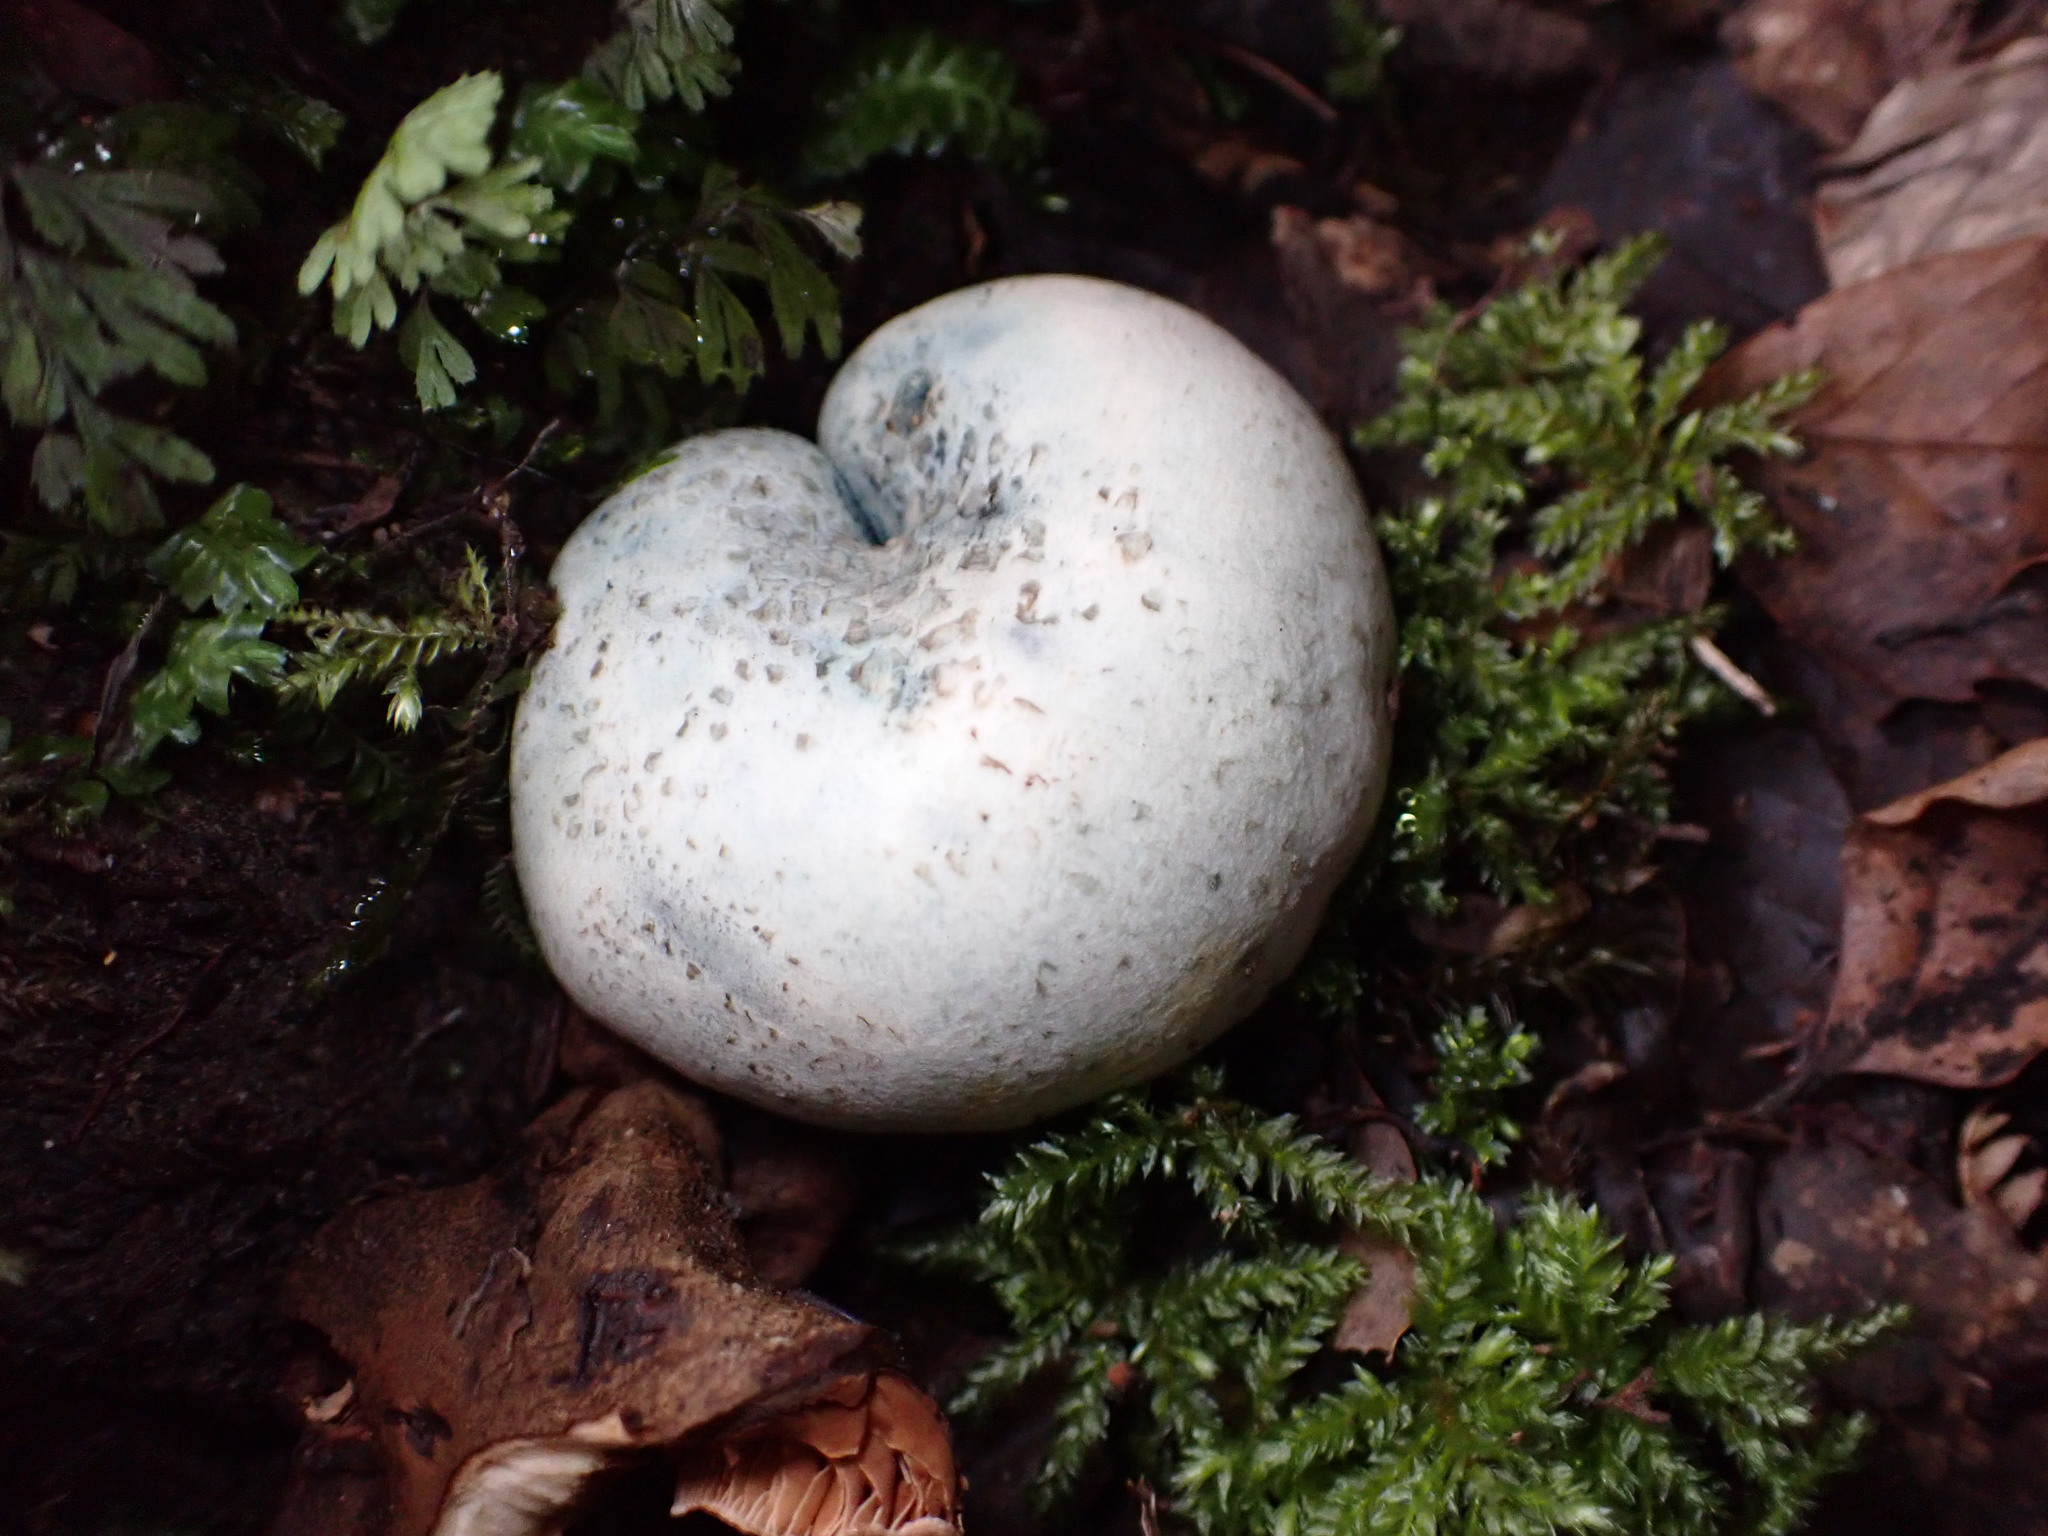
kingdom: Fungi
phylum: Basidiomycota
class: Agaricomycetes
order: Boletales
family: Boletaceae
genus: Leccinum
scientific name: Leccinum pachyderme
